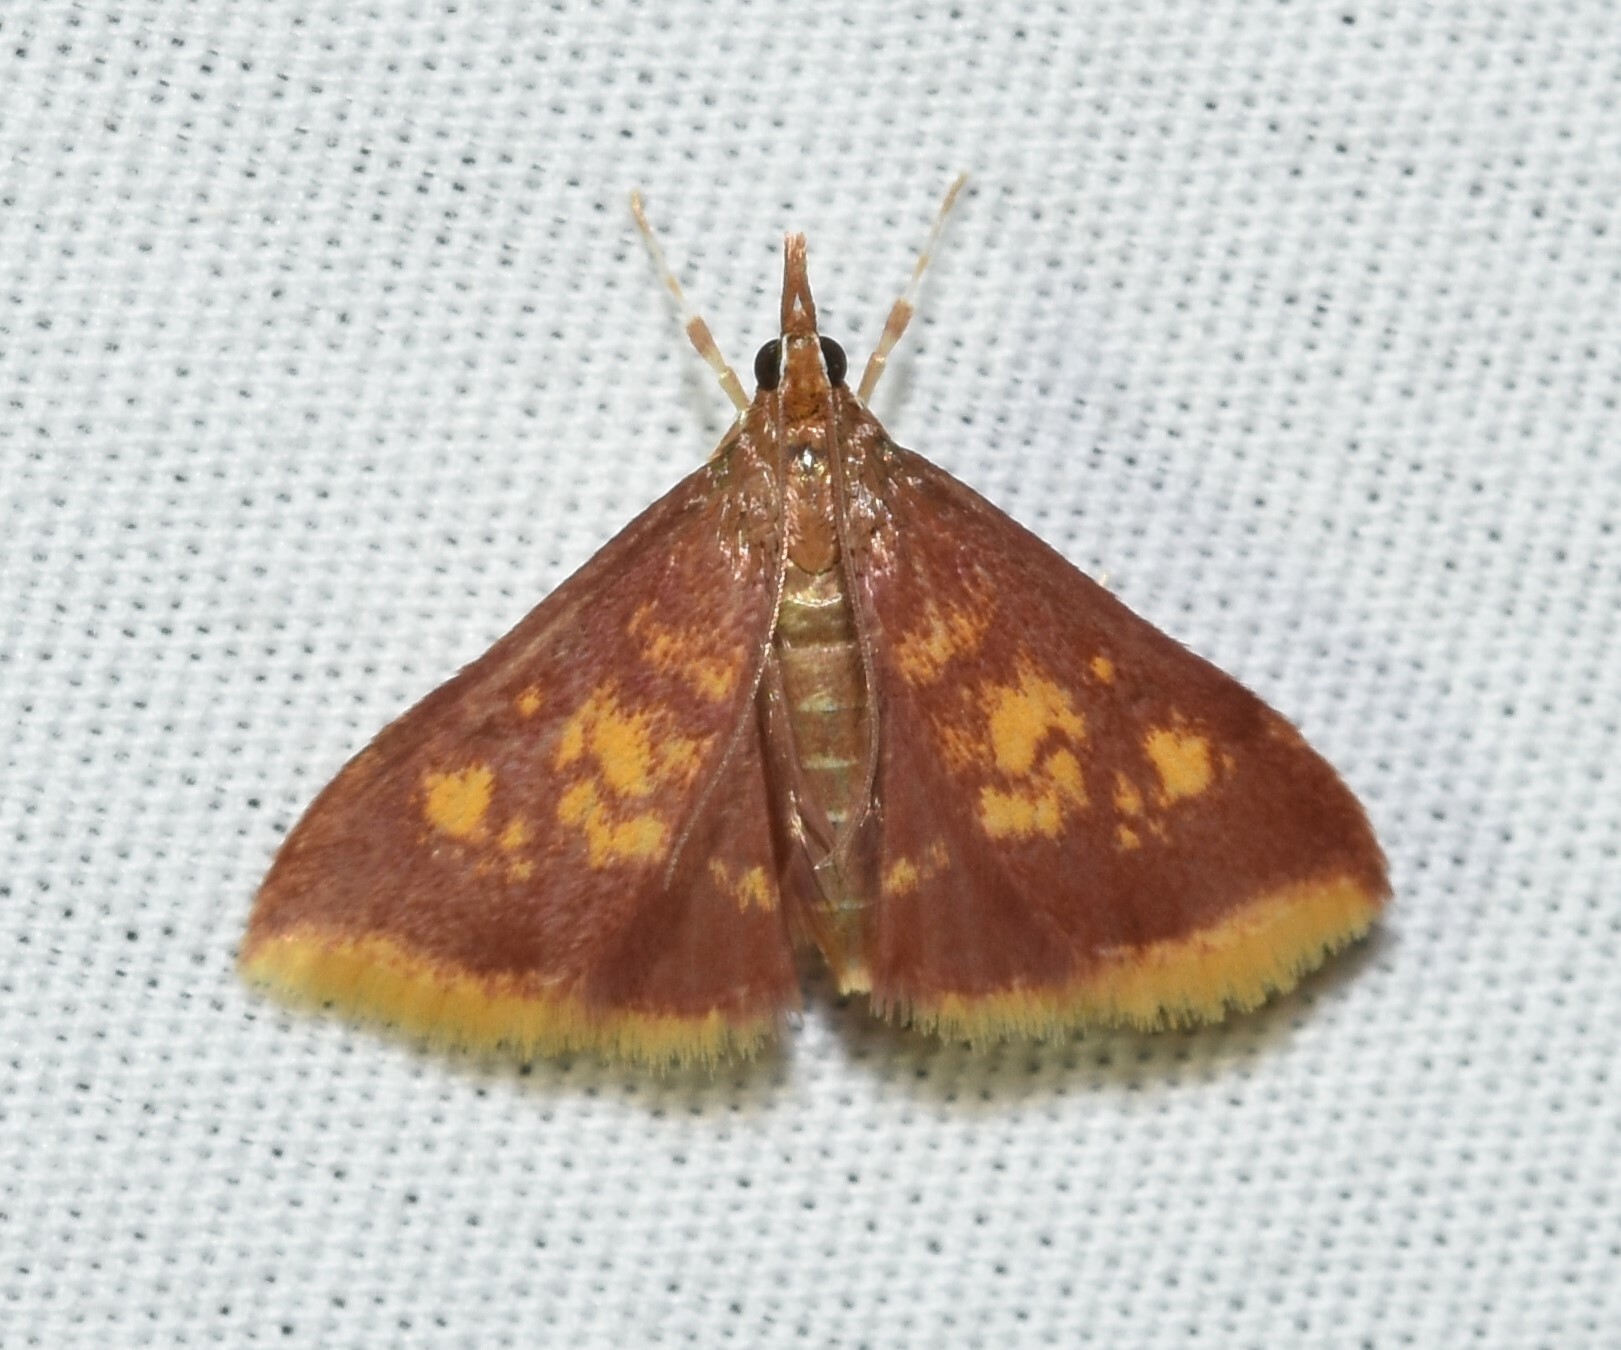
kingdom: Animalia
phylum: Arthropoda
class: Insecta
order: Lepidoptera
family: Crambidae
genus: Pyrausta
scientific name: Pyrausta acrionalis
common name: Mint-loving pyrausta moth
